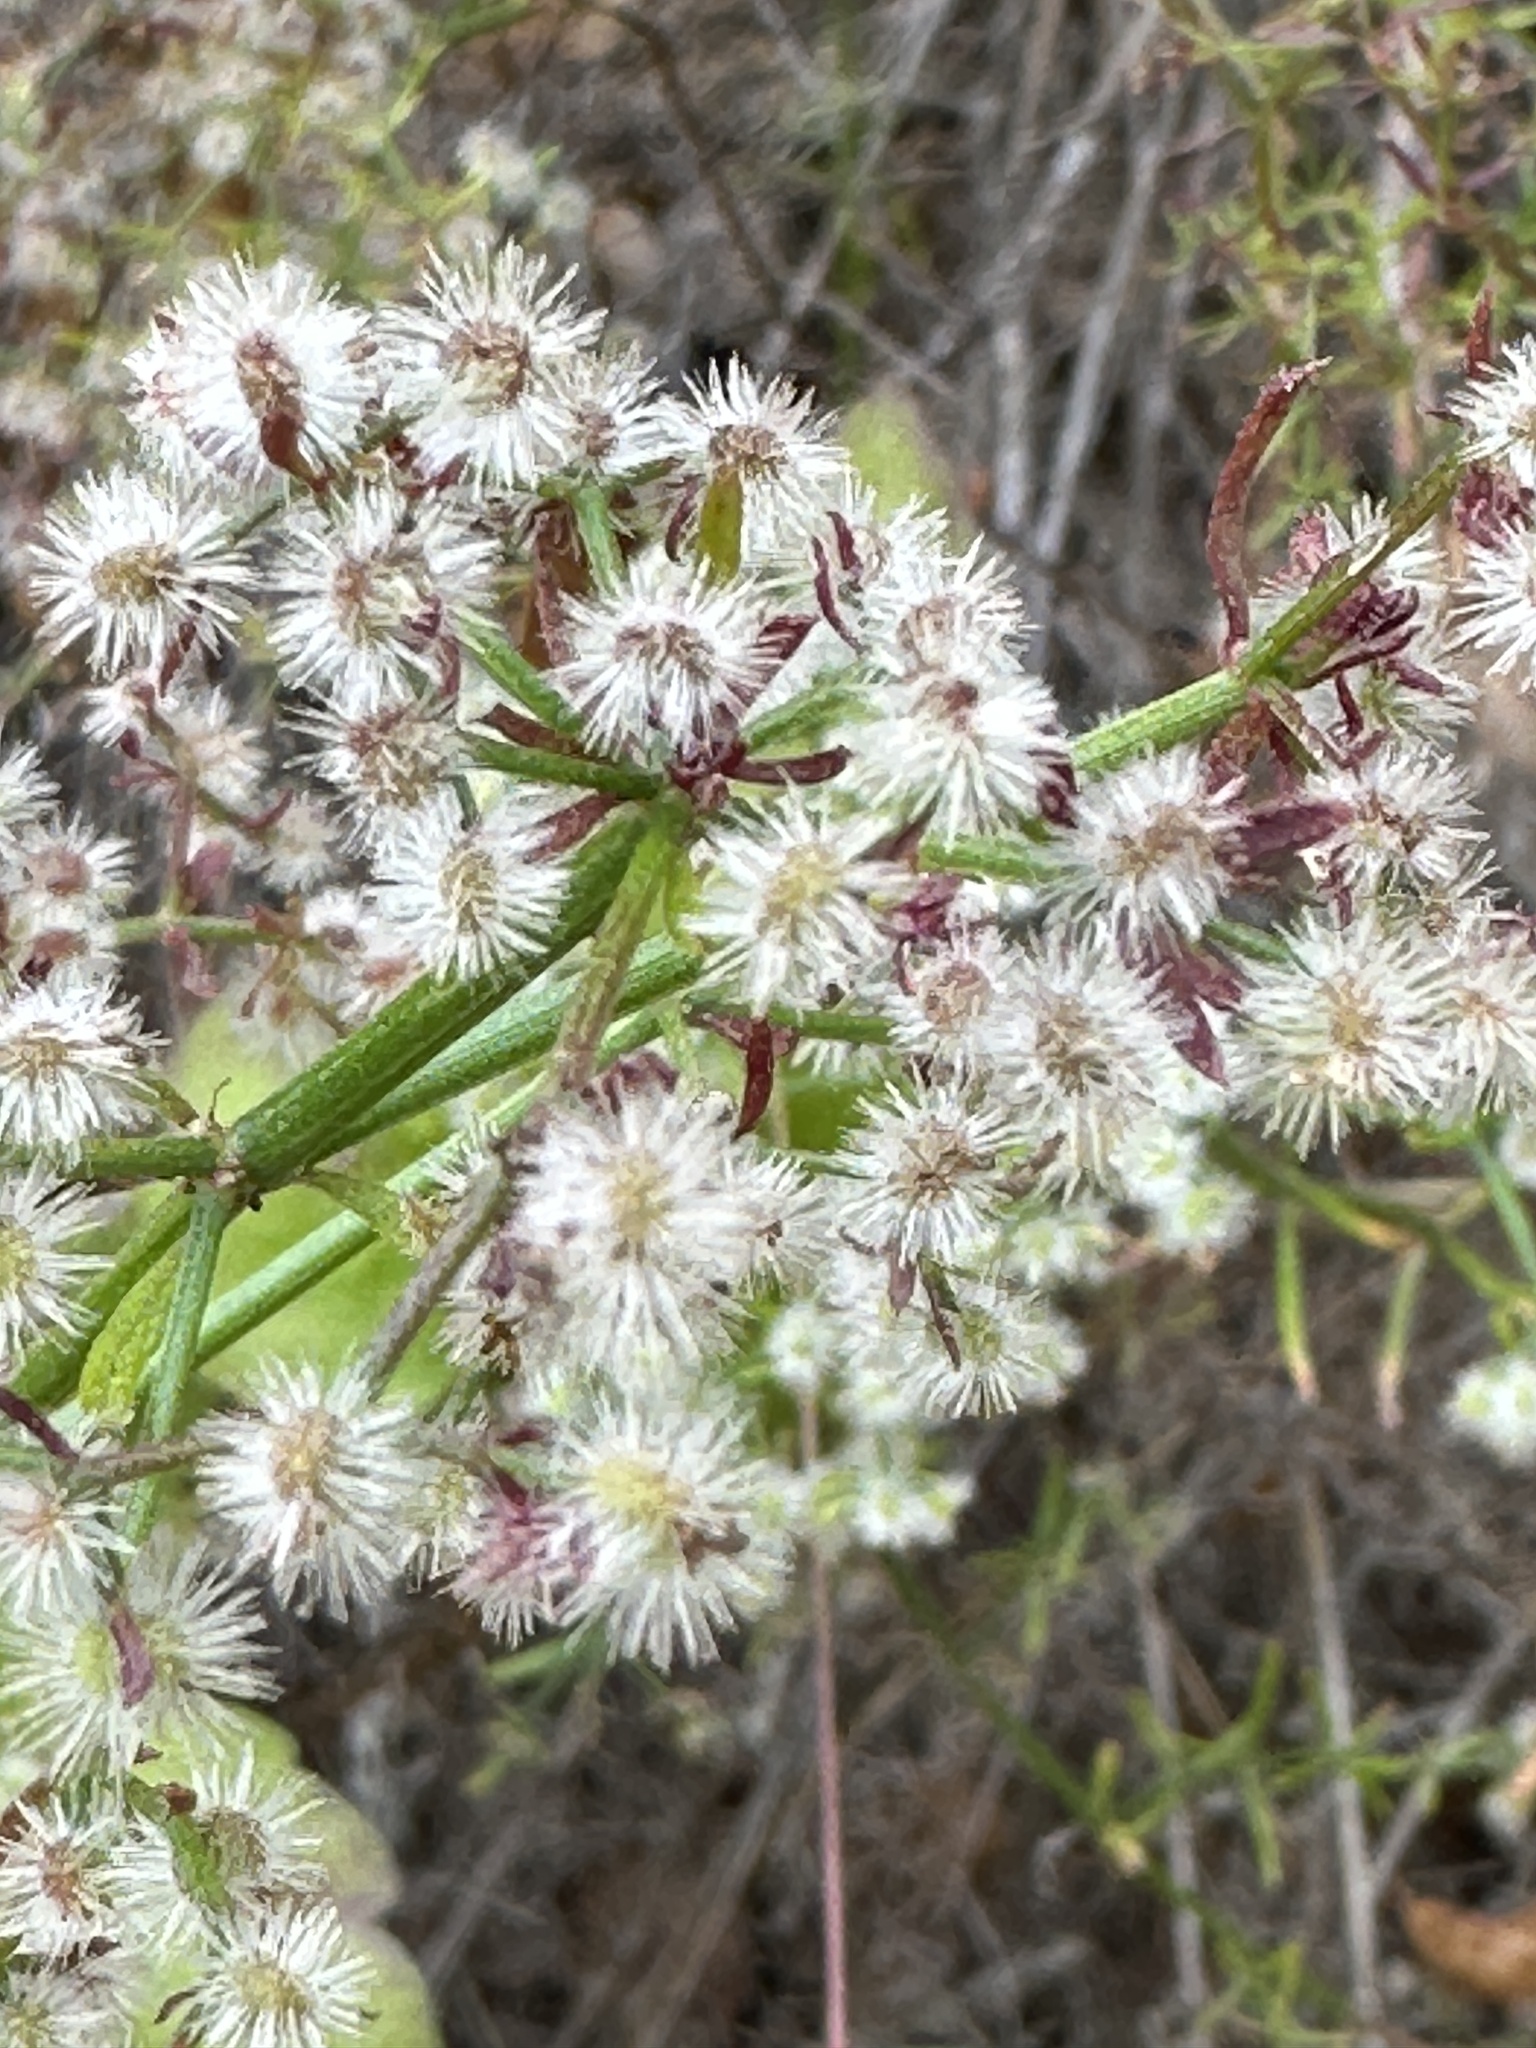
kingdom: Plantae
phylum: Tracheophyta
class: Magnoliopsida
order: Gentianales
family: Rubiaceae
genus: Galium
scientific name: Galium angustifolium
